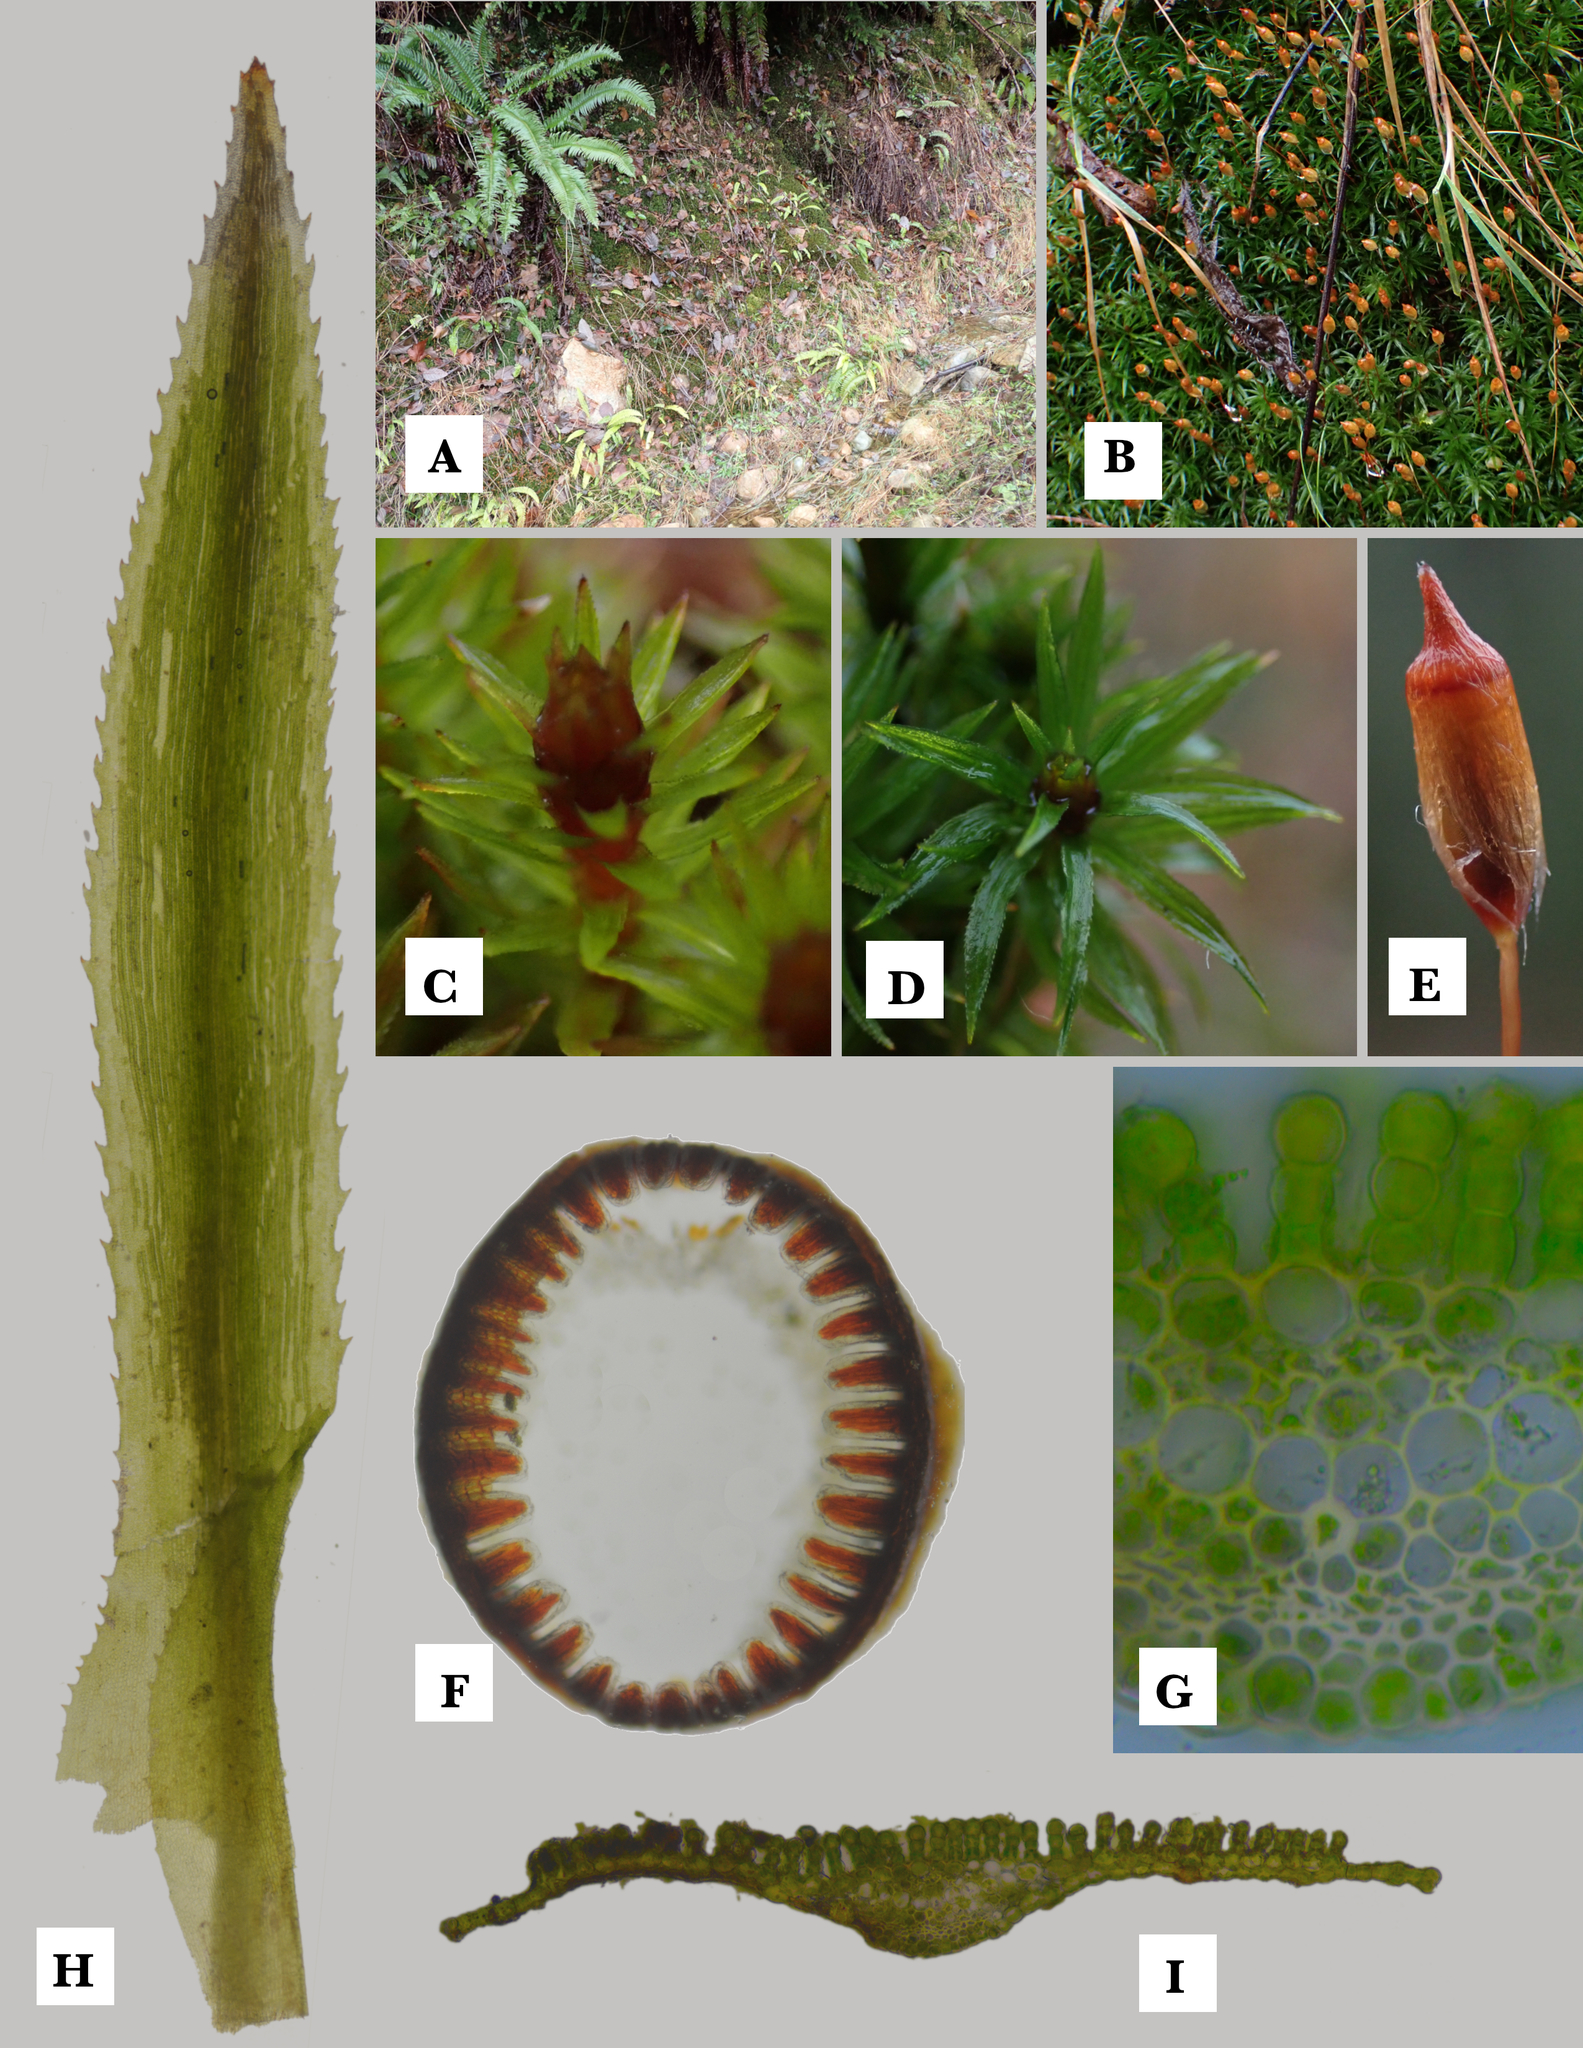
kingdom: Plantae
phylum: Bryophyta
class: Polytrichopsida
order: Polytrichales
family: Polytrichaceae
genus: Pogonatum
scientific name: Pogonatum contortum
